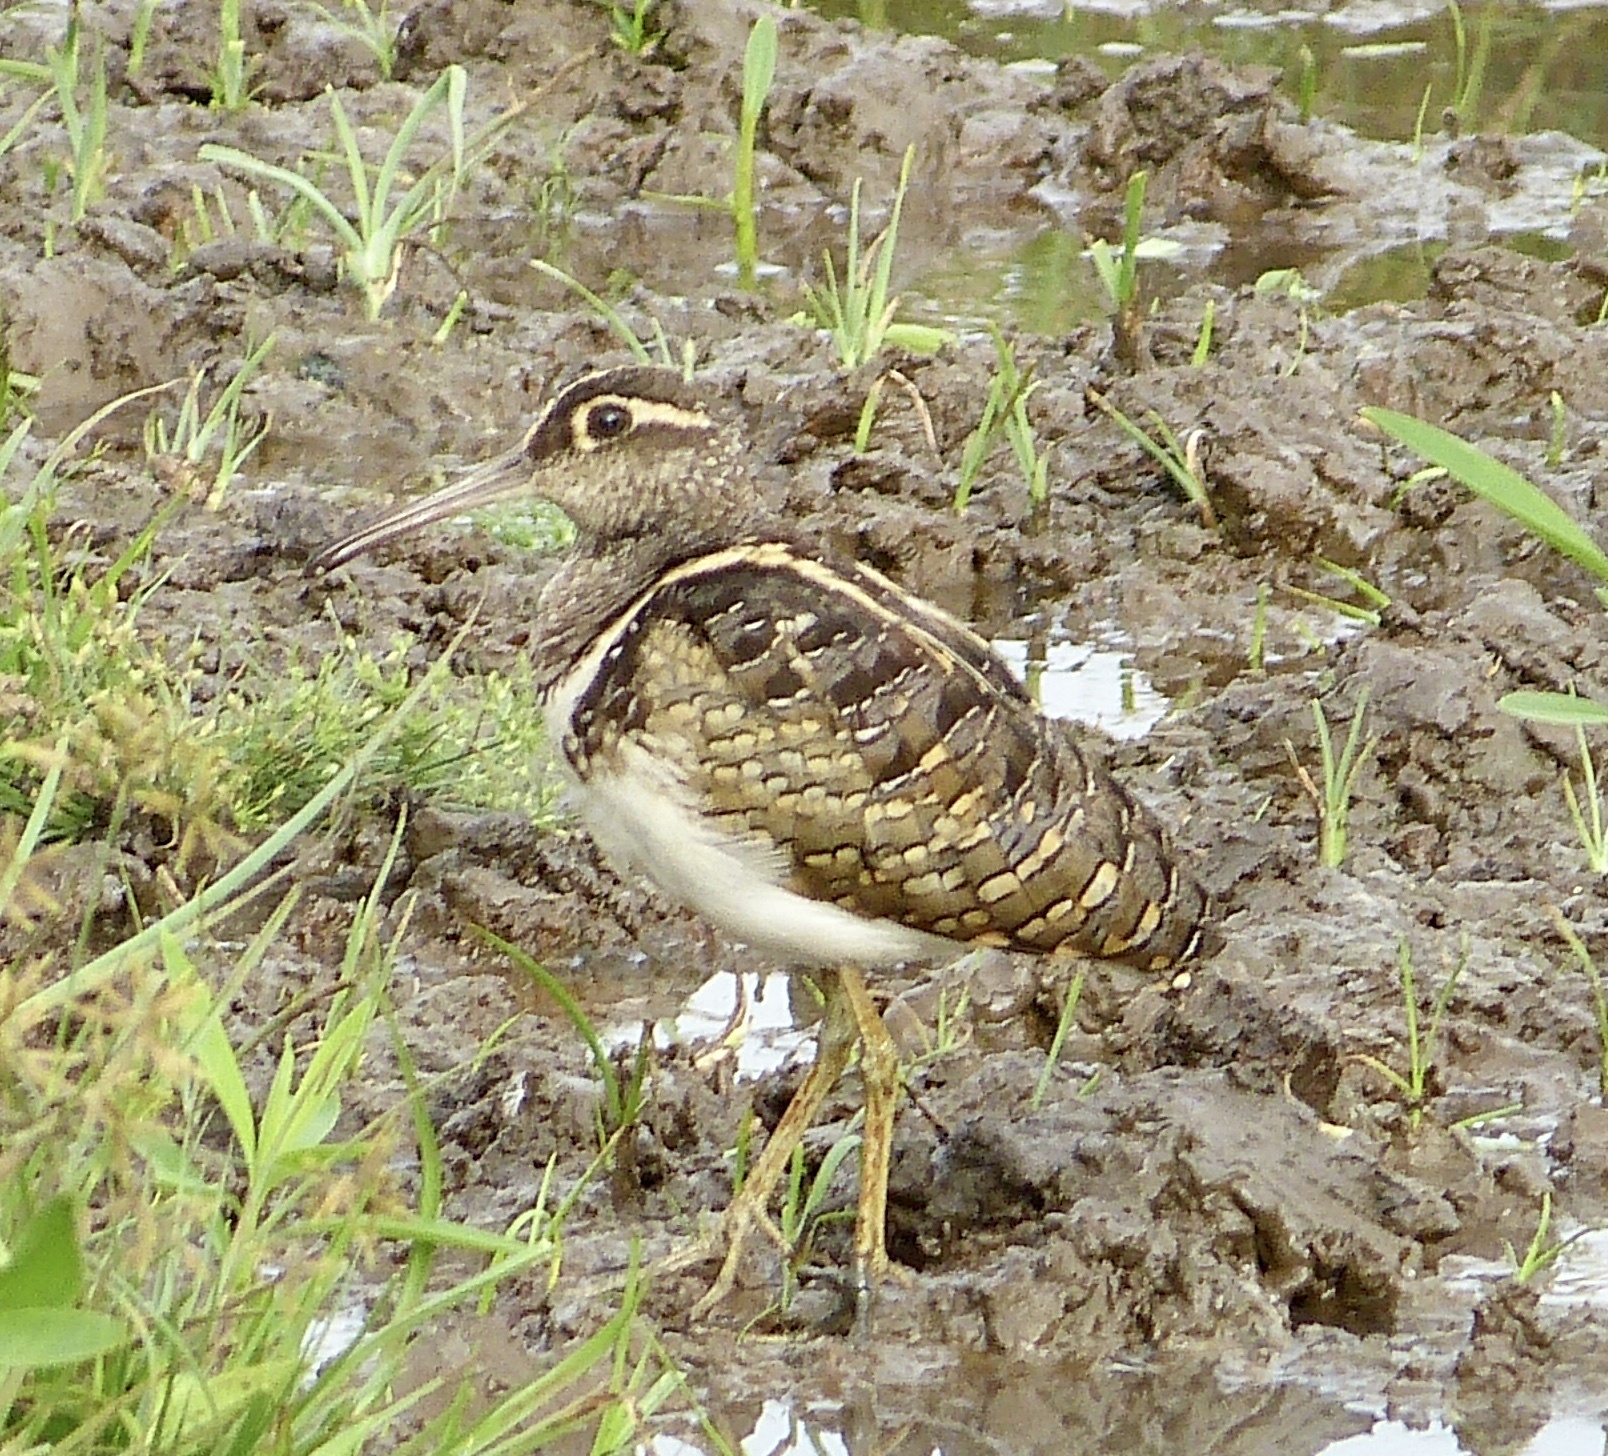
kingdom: Animalia
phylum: Chordata
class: Aves
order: Charadriiformes
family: Rostratulidae
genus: Rostratula
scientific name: Rostratula benghalensis
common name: Greater painted-snipe
